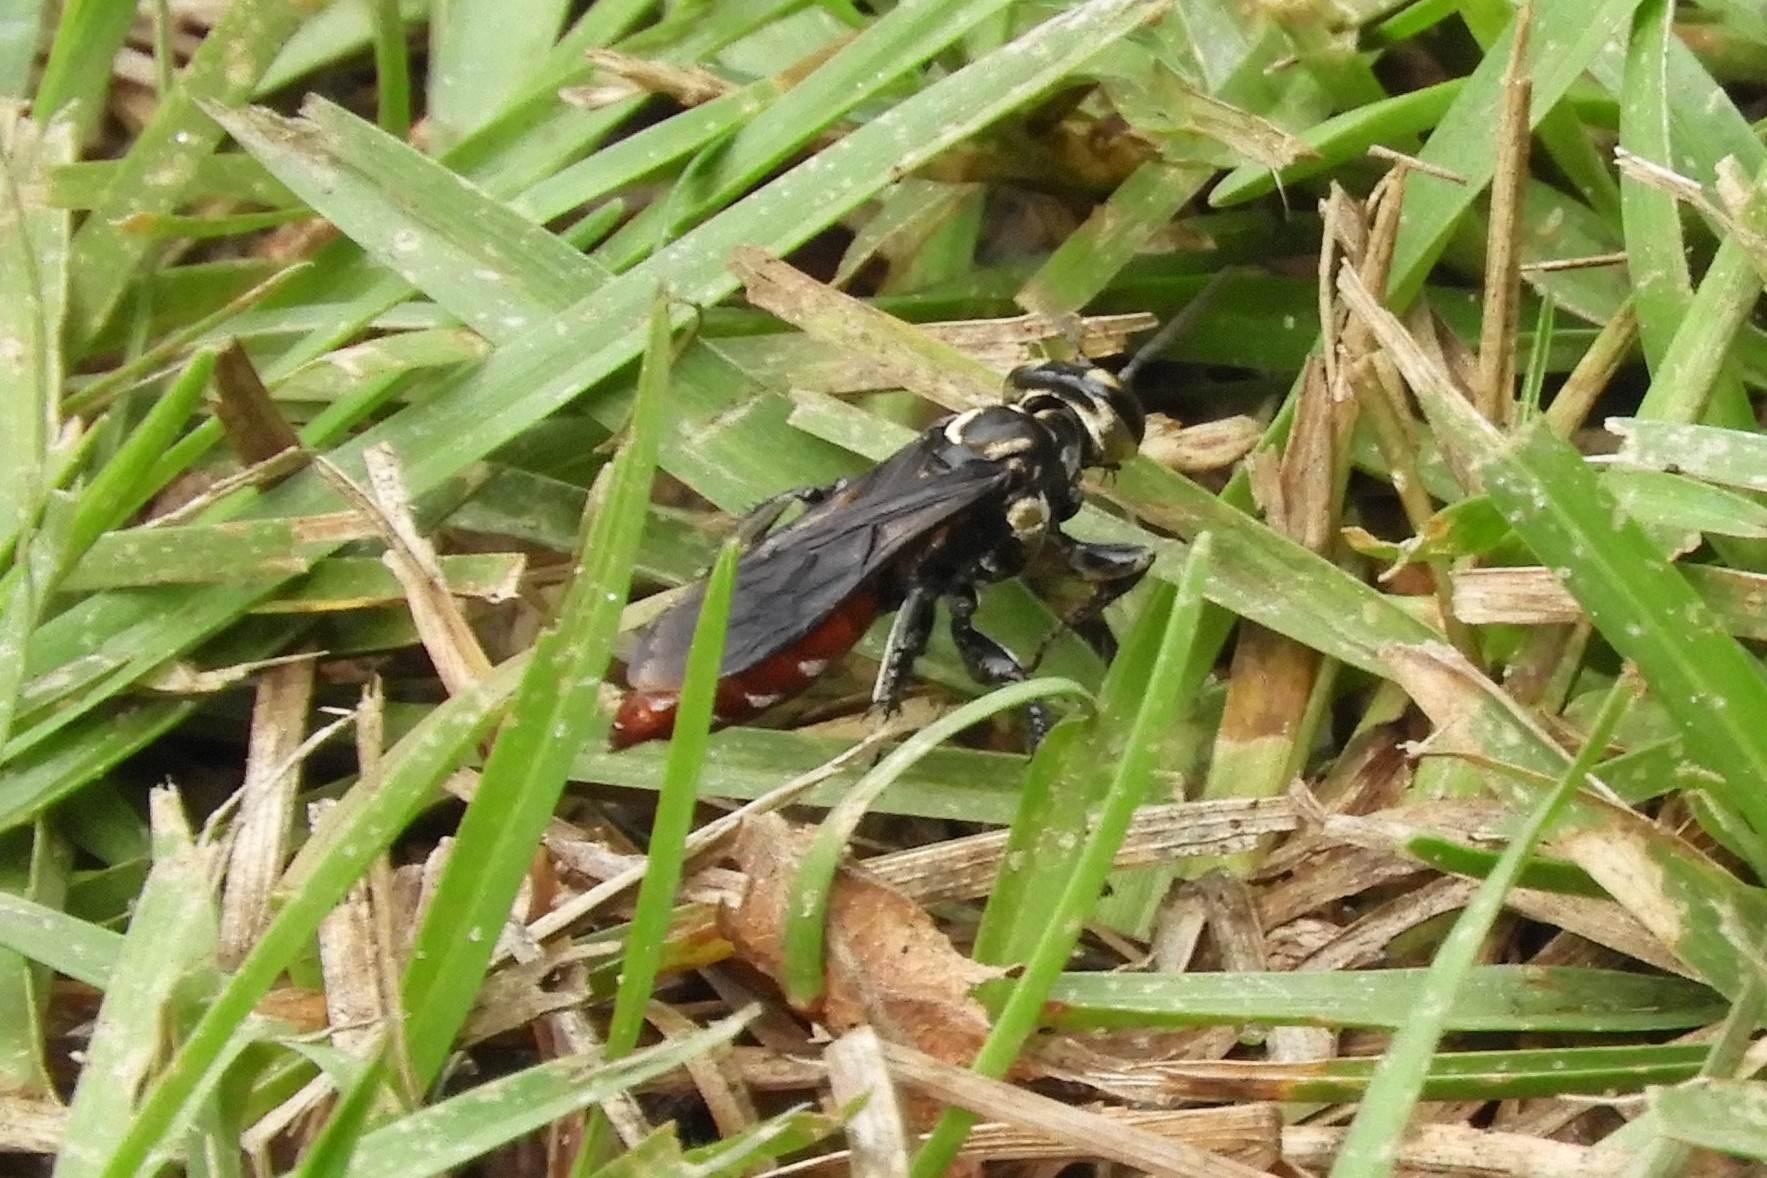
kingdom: Animalia
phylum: Arthropoda
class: Insecta
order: Hymenoptera
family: Crabronidae
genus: Larra
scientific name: Larra bicolor
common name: Wasp
